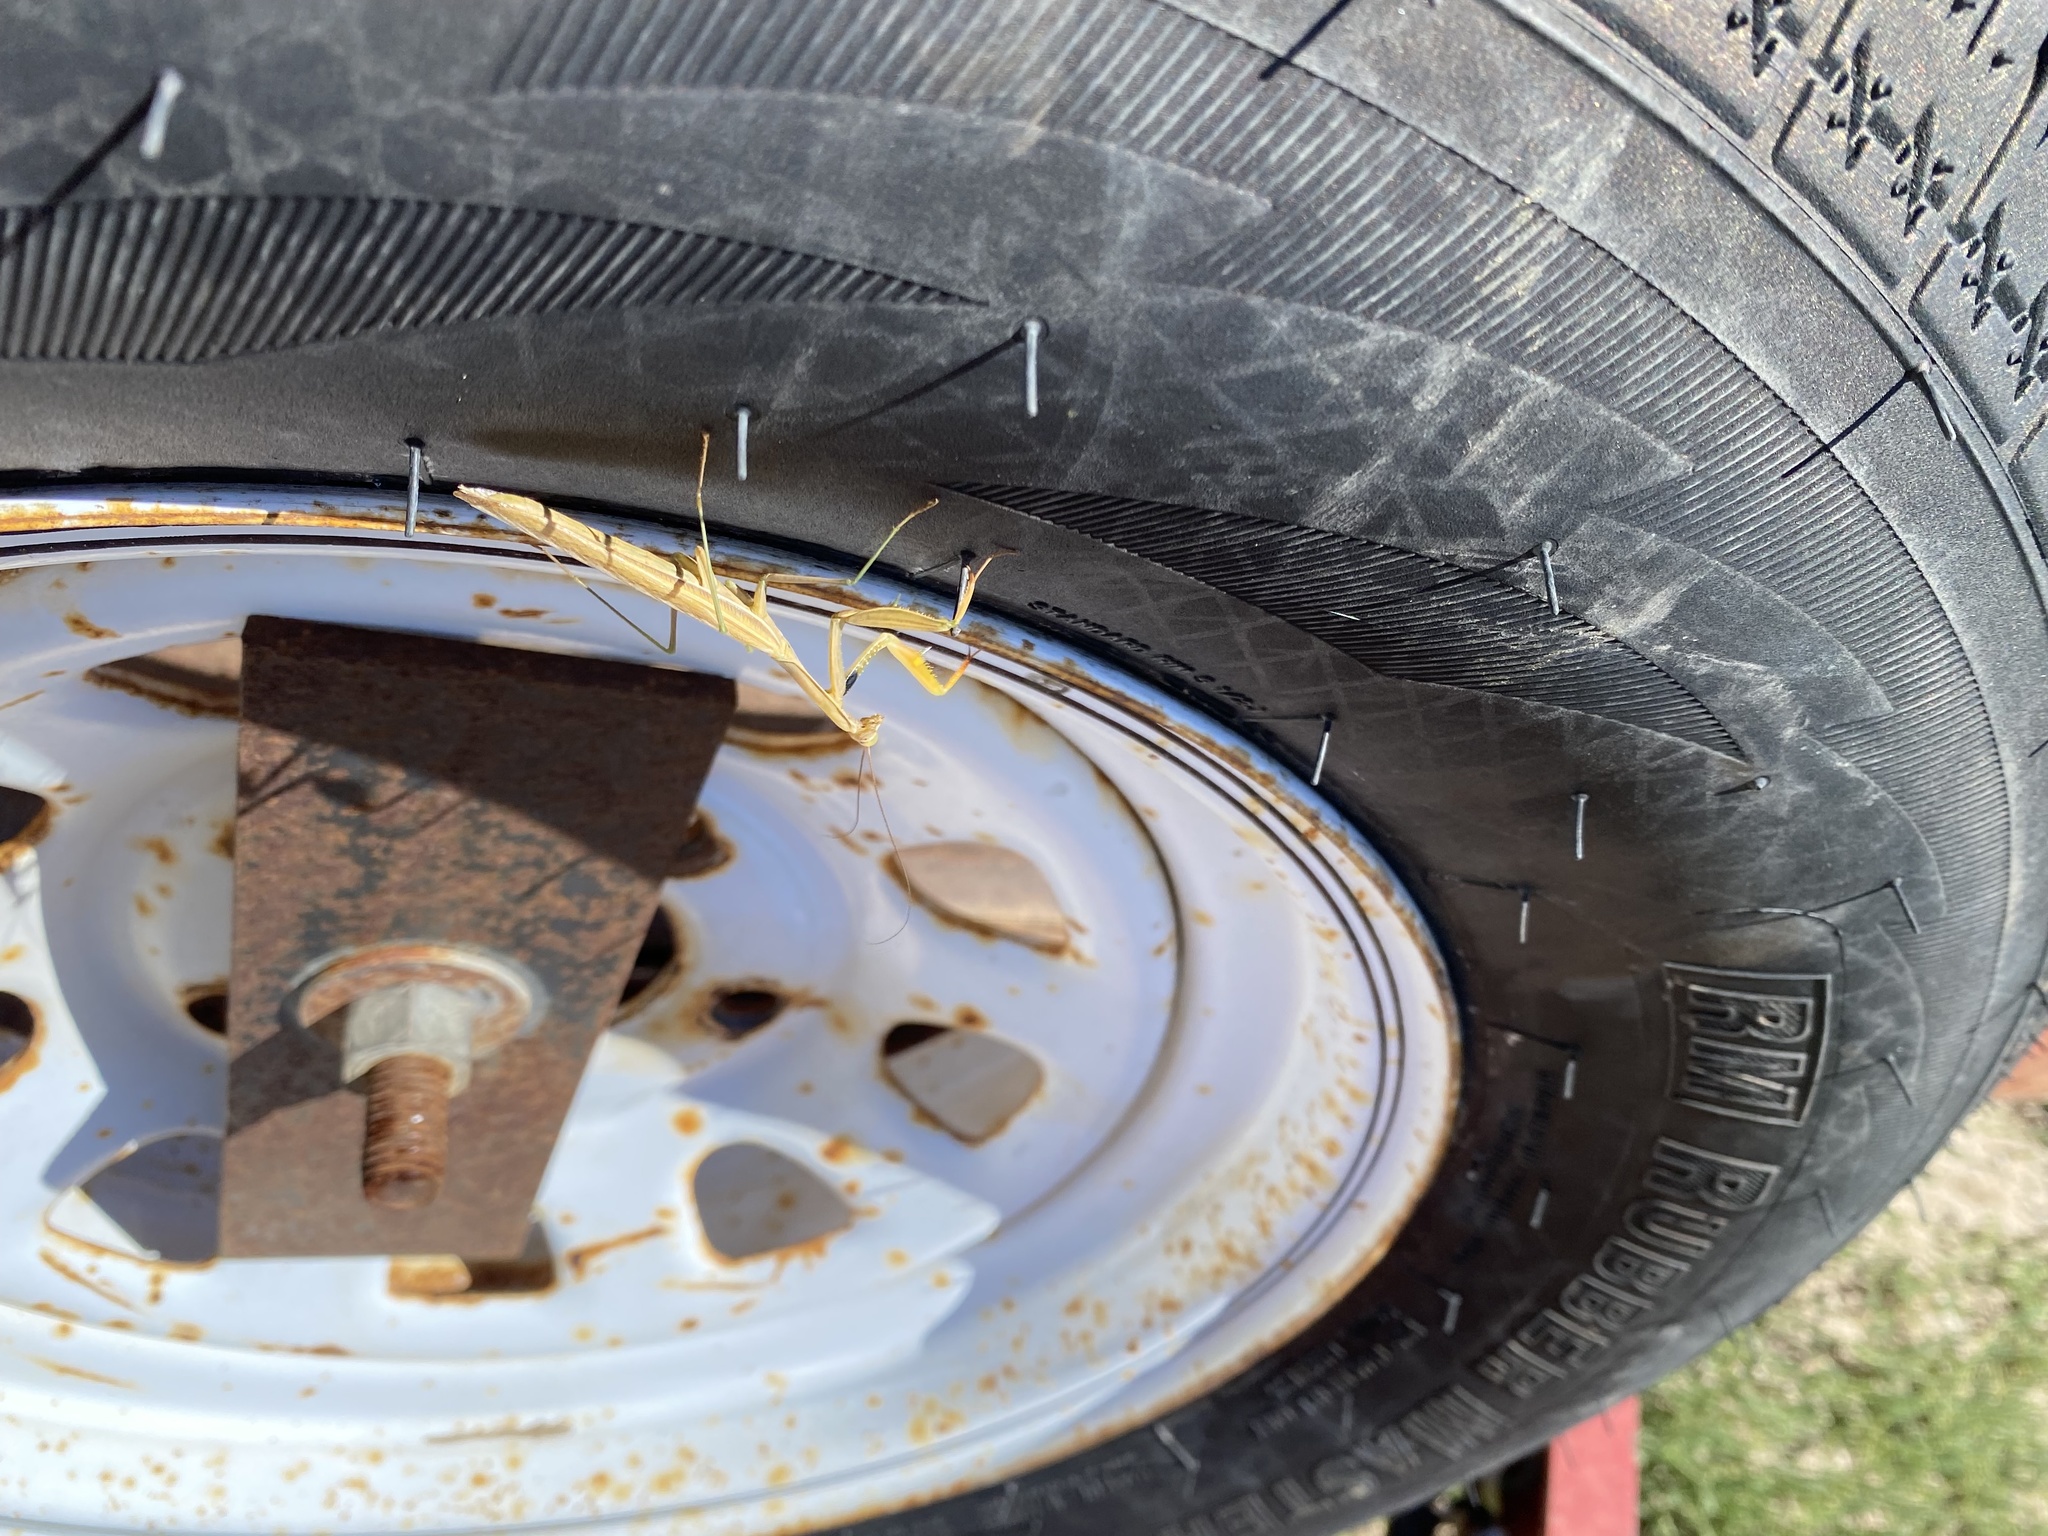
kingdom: Animalia
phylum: Arthropoda
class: Insecta
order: Mantodea
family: Mantidae
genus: Mantis
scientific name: Mantis religiosa
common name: Praying mantis
